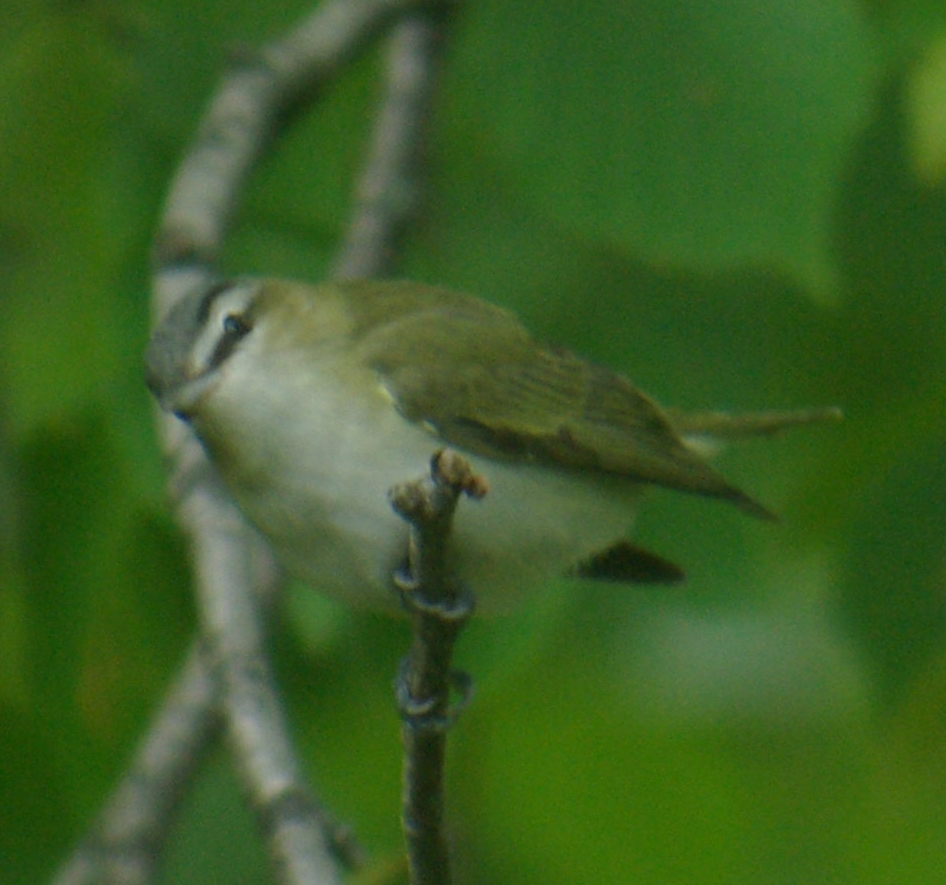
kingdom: Animalia
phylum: Chordata
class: Aves
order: Passeriformes
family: Vireonidae
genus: Vireo
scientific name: Vireo olivaceus
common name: Red-eyed vireo
